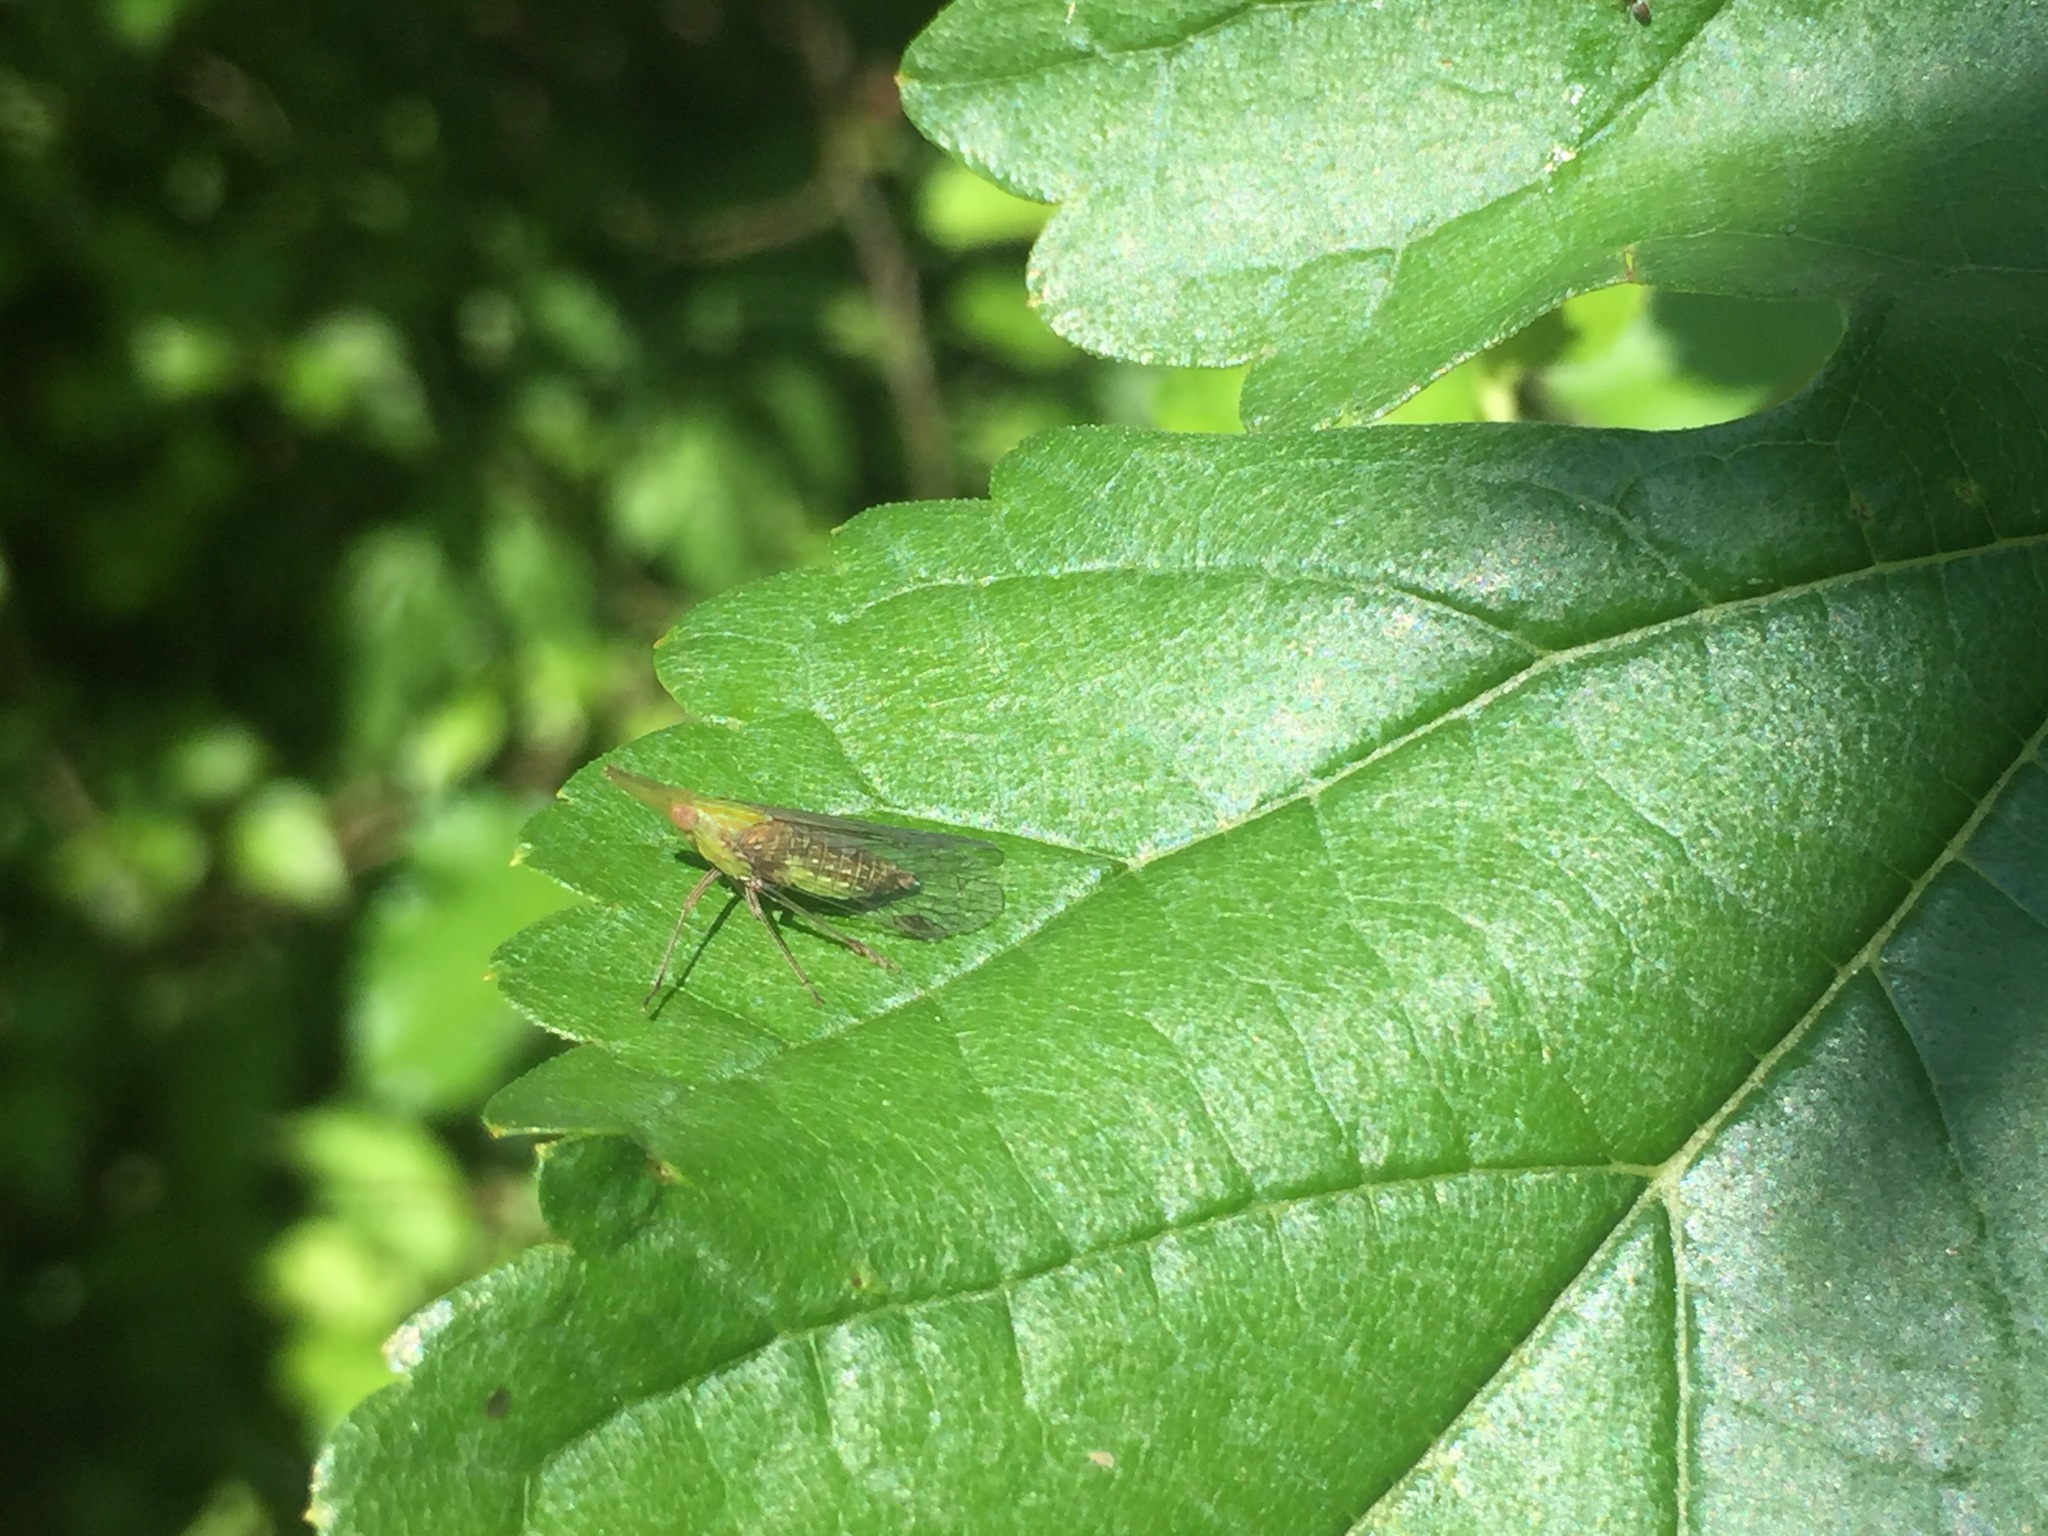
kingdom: Animalia
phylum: Arthropoda
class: Insecta
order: Hemiptera
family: Dictyopharidae
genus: Raivuna
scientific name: Raivuna patruelis
